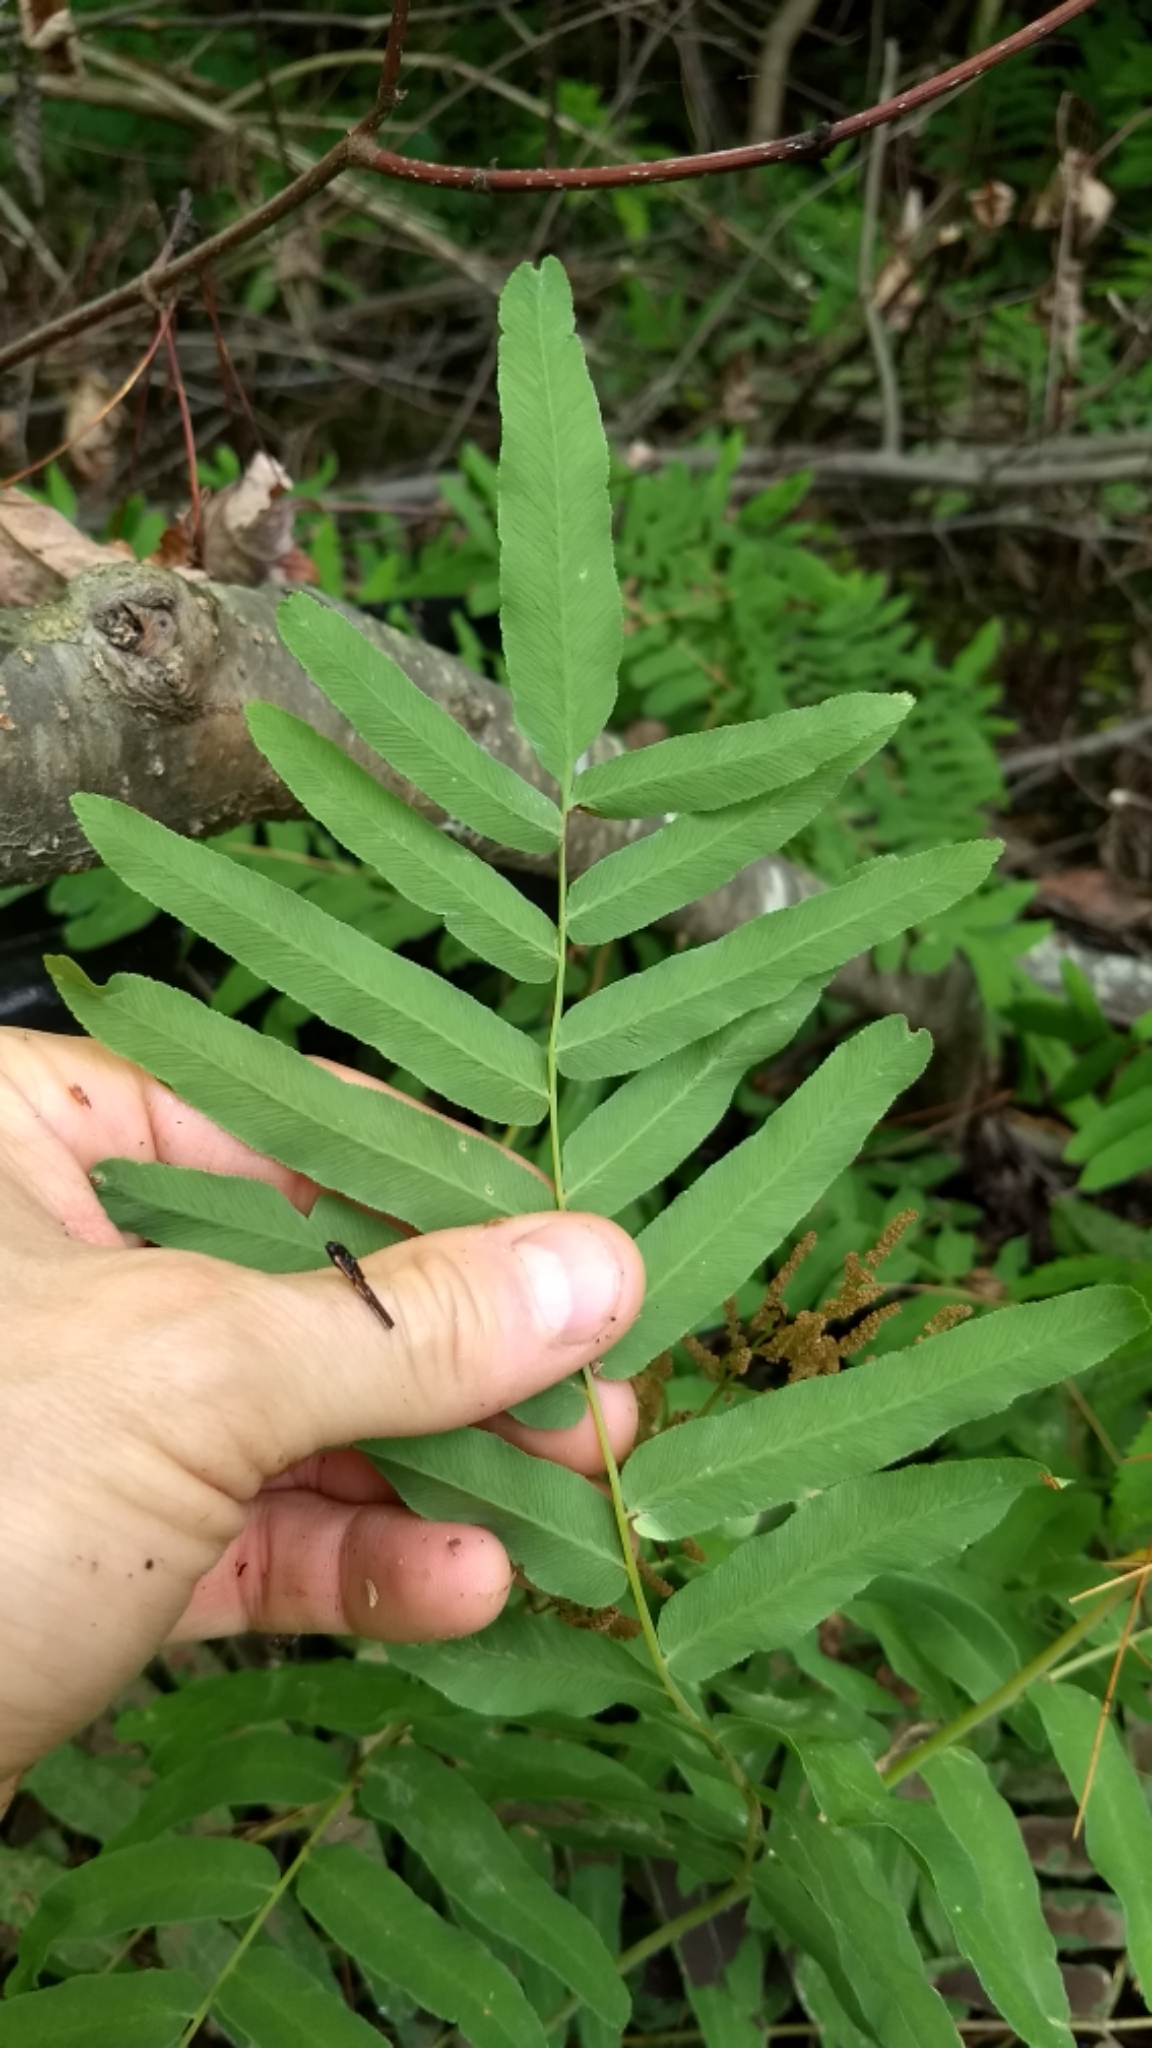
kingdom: Plantae
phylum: Tracheophyta
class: Polypodiopsida
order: Osmundales
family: Osmundaceae
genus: Osmunda
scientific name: Osmunda spectabilis
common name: American royal fern
